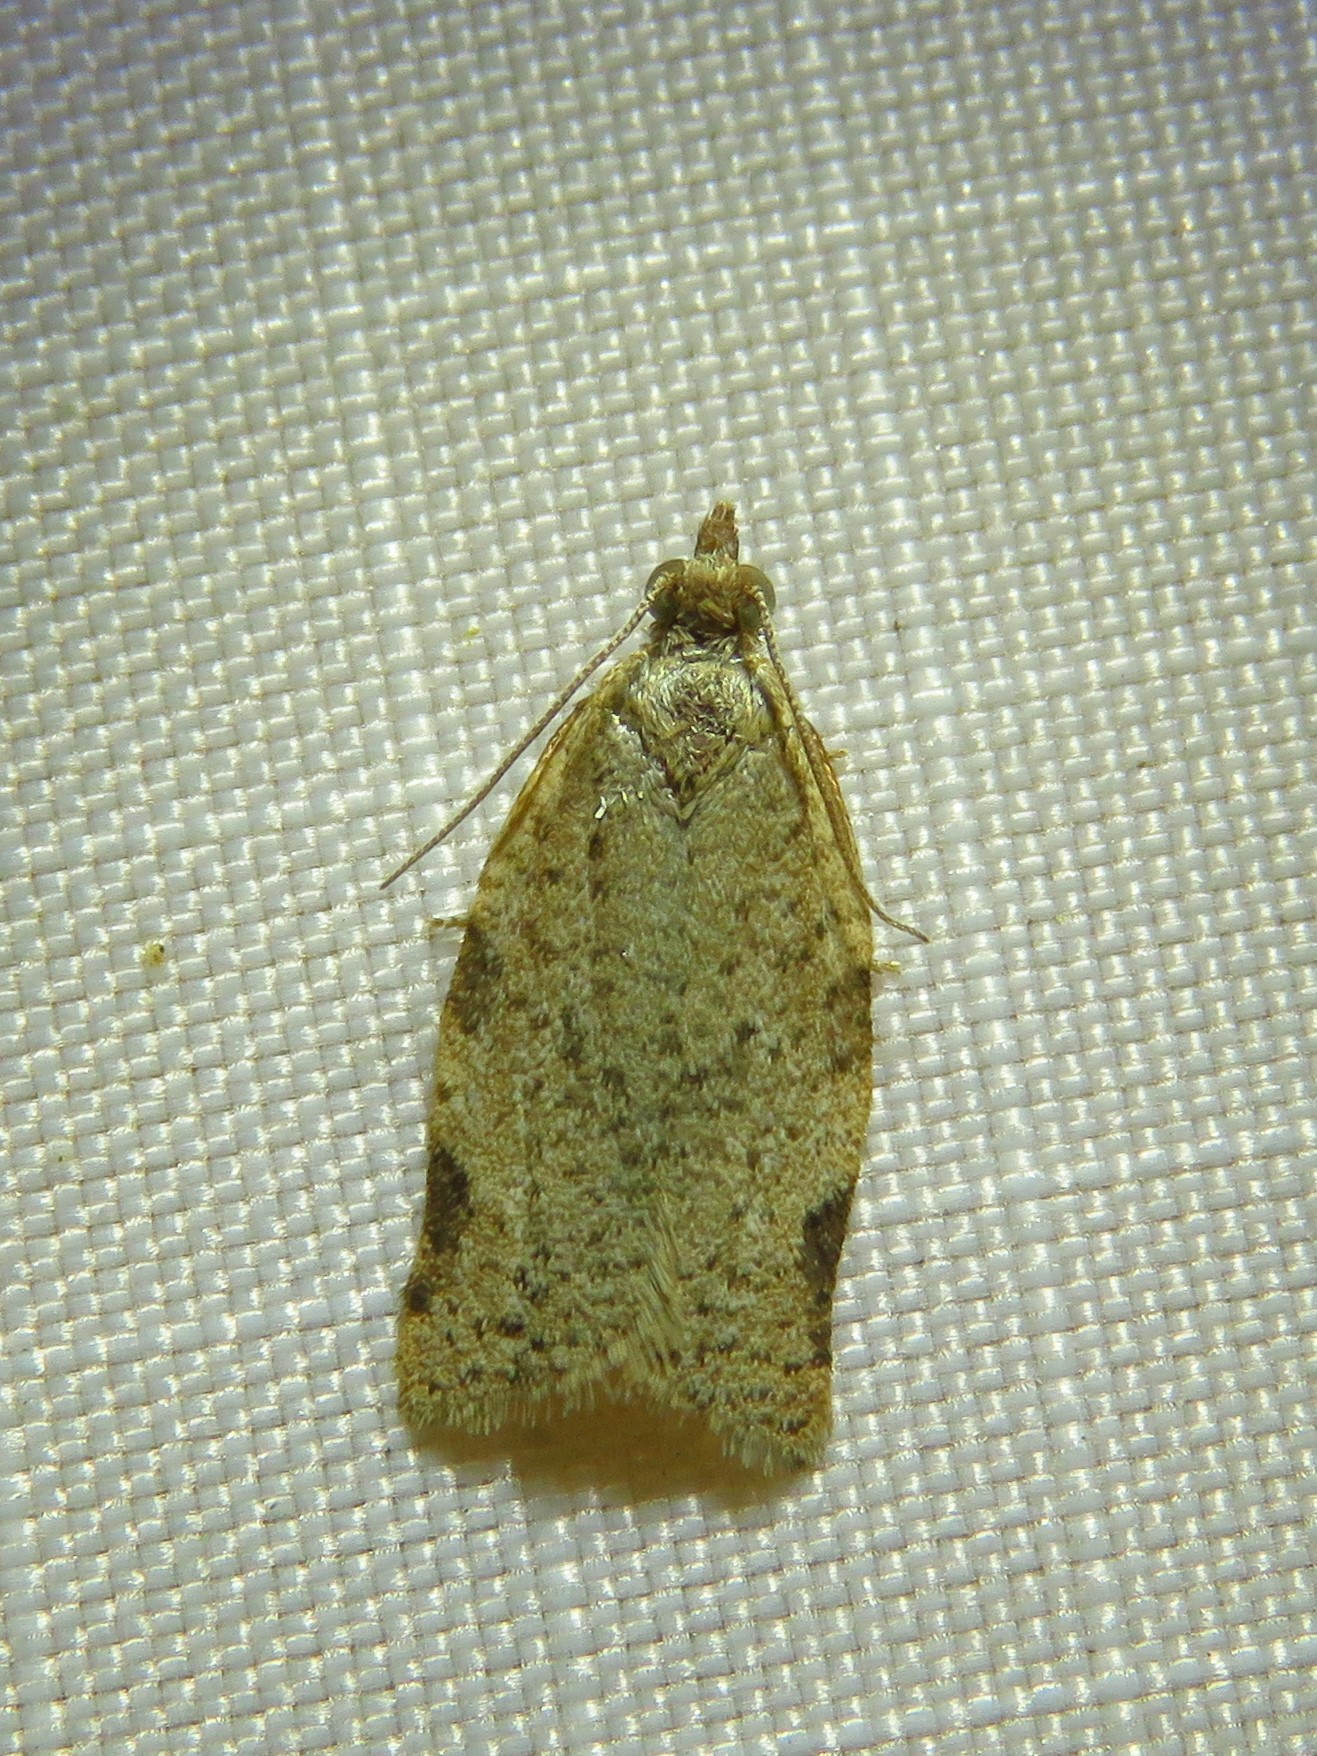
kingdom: Animalia
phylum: Arthropoda
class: Insecta
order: Lepidoptera
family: Tortricidae
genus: Clepsis
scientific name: Clepsis virescana
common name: Greenish apple moth
